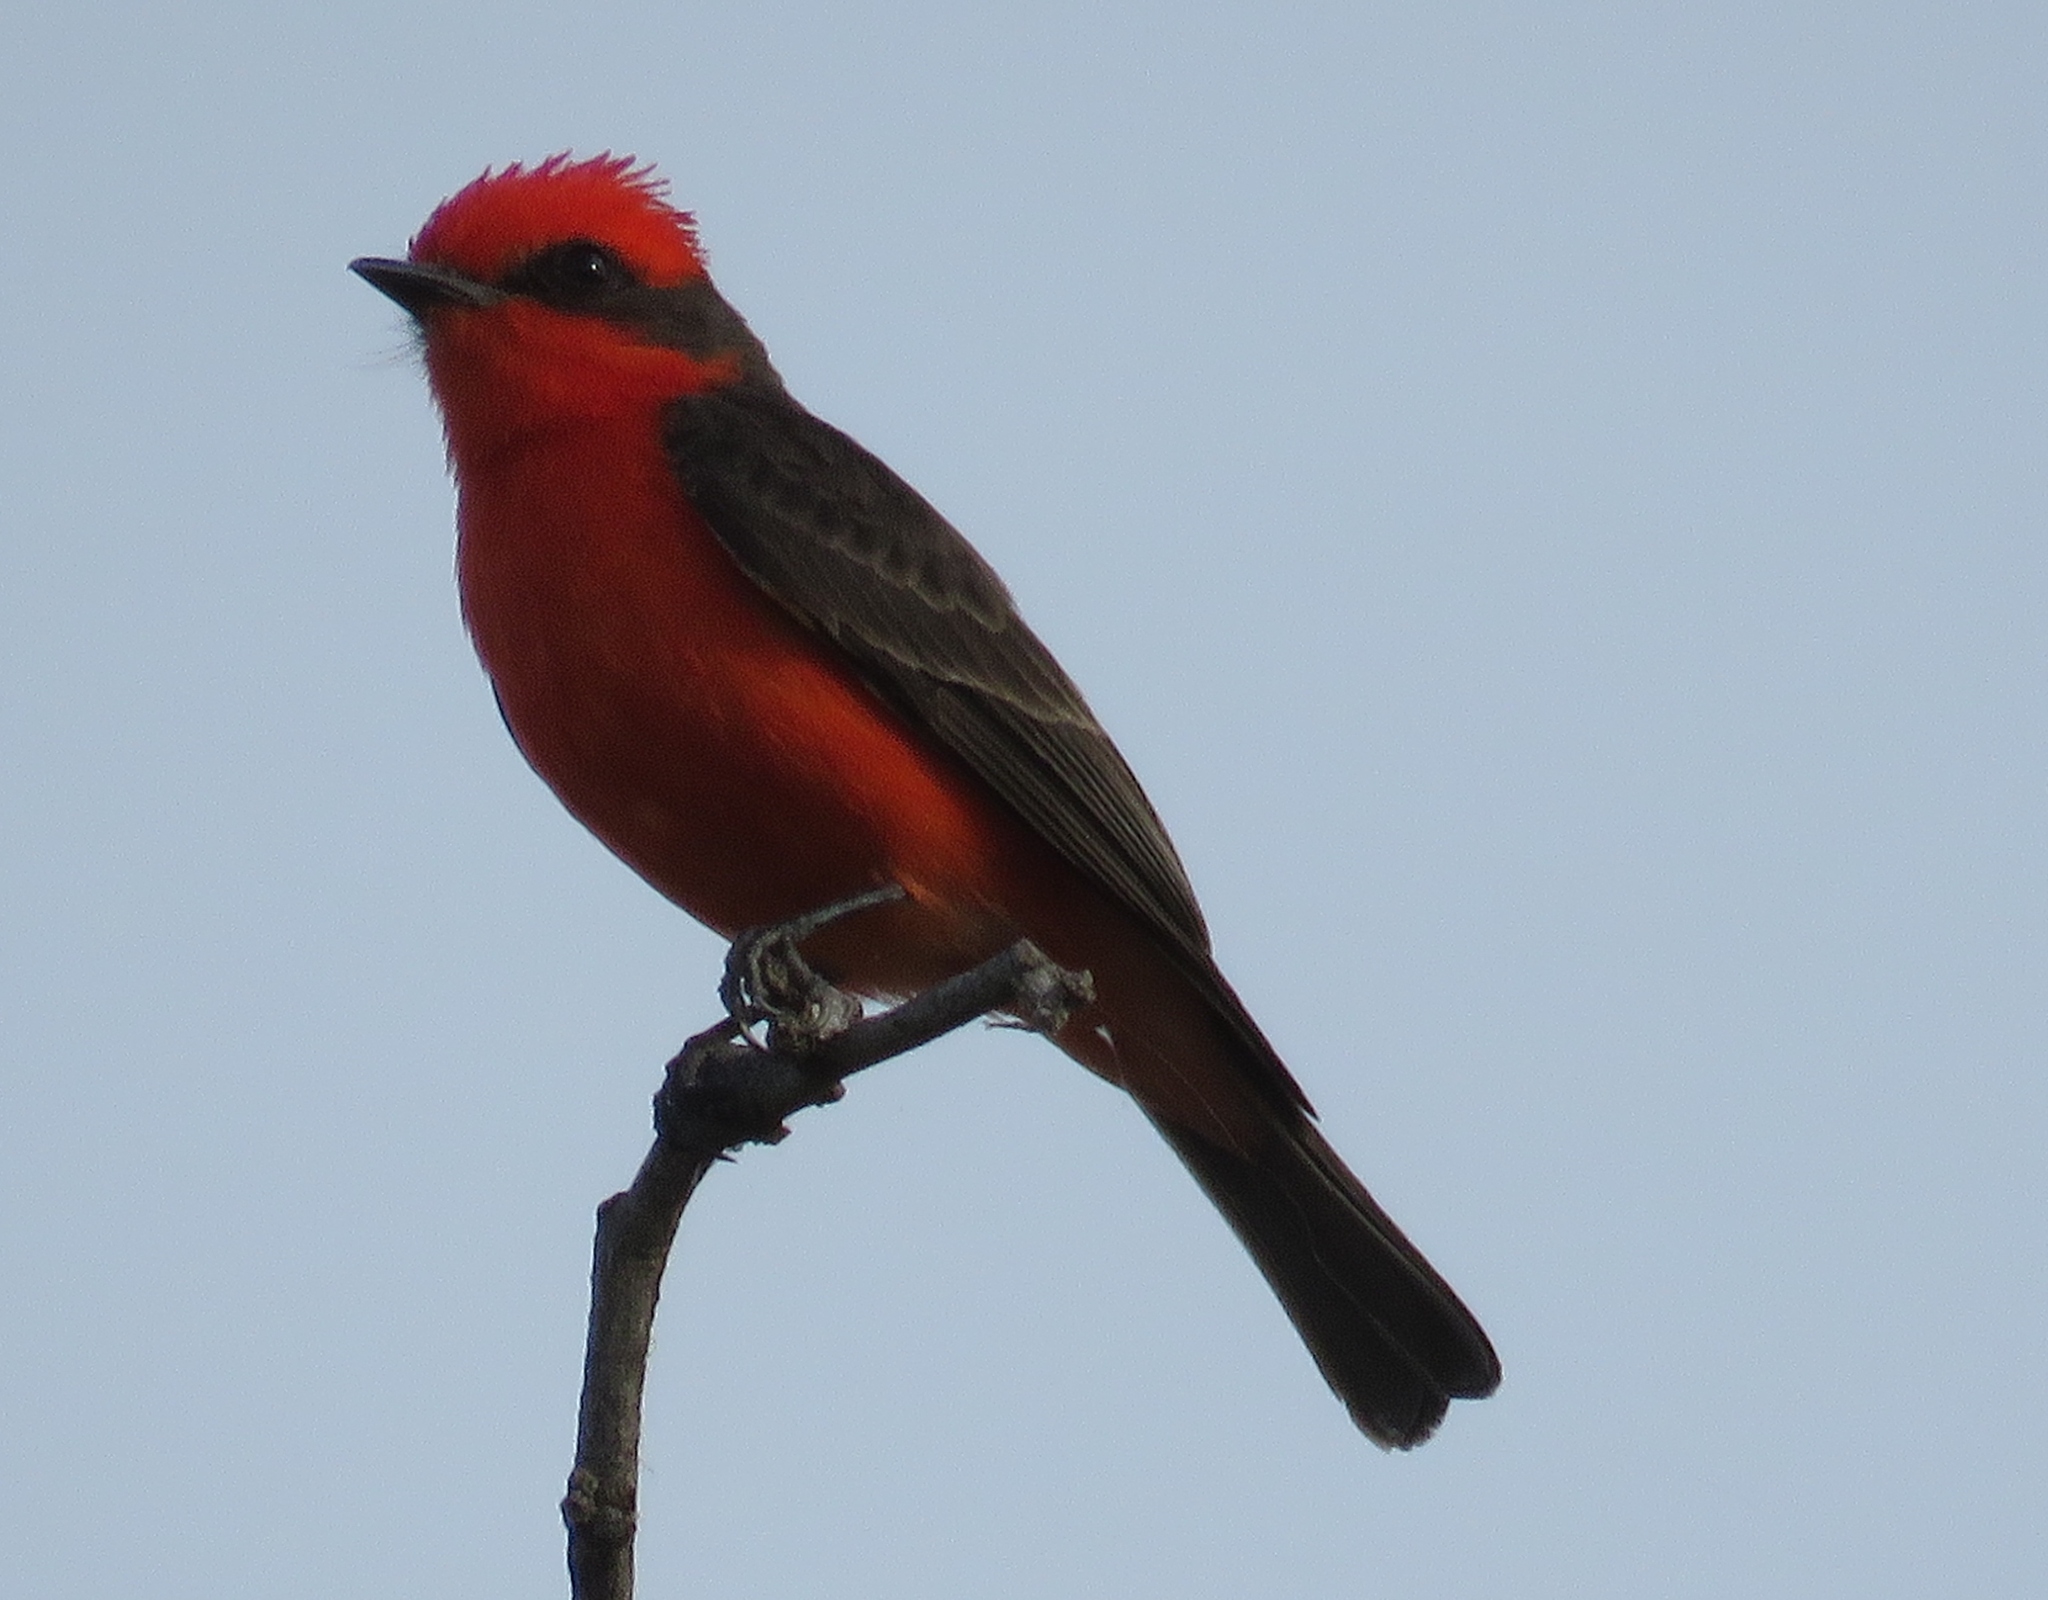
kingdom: Animalia
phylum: Chordata
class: Aves
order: Passeriformes
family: Tyrannidae
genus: Pyrocephalus
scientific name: Pyrocephalus rubinus
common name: Vermilion flycatcher
